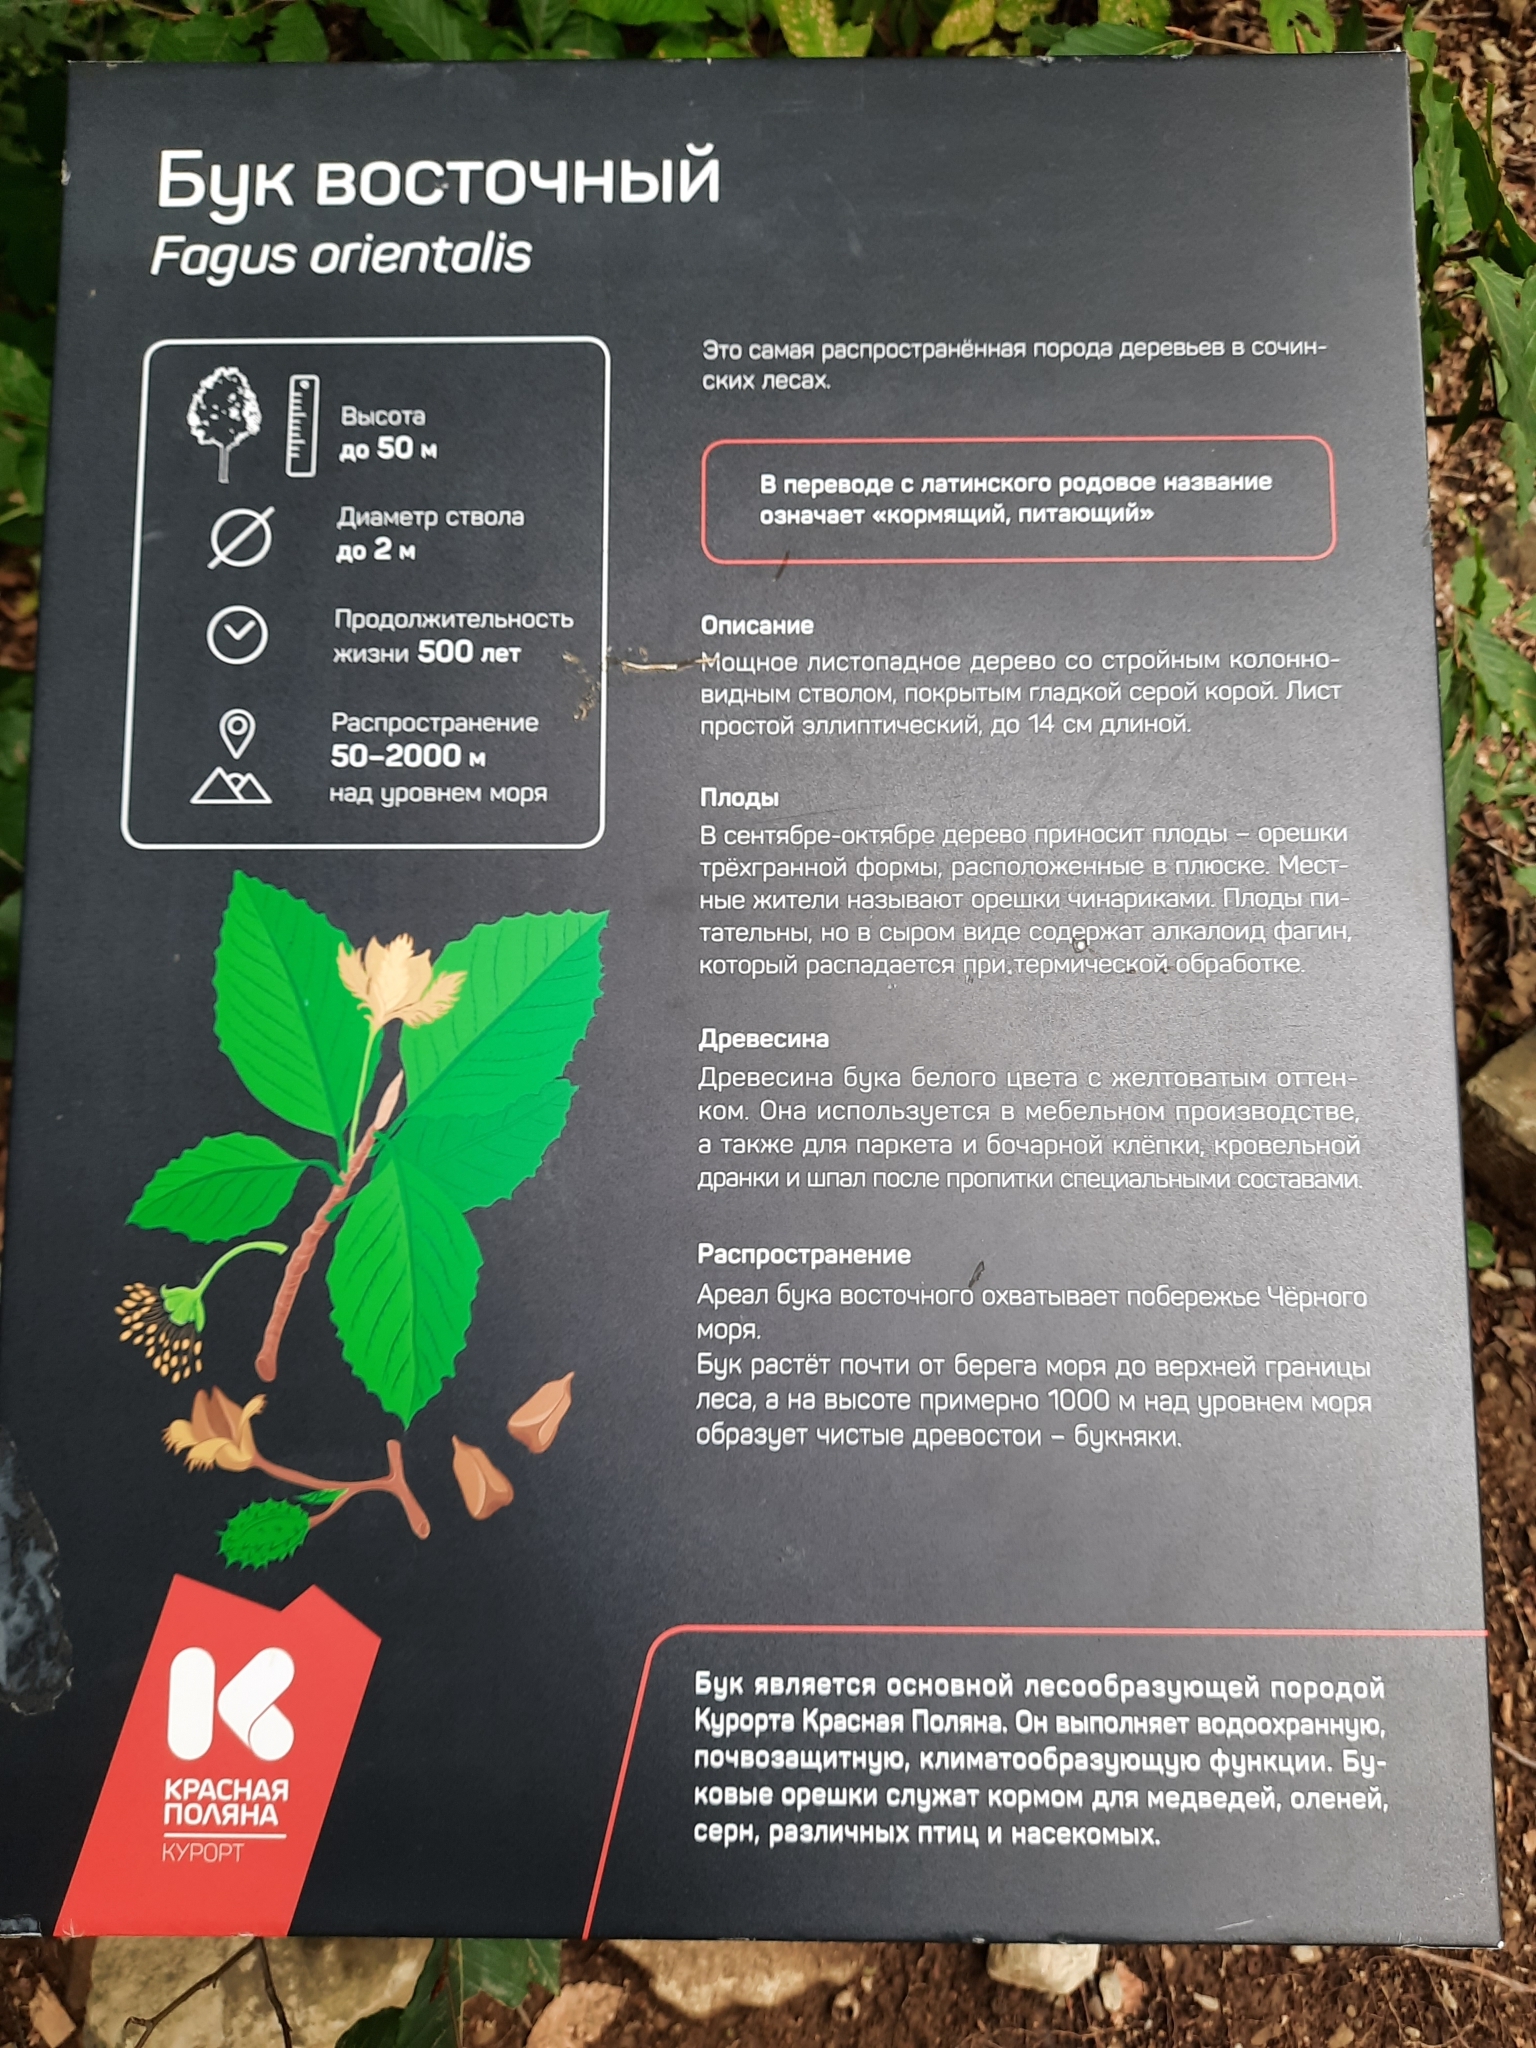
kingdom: Plantae
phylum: Tracheophyta
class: Magnoliopsida
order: Fagales
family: Fagaceae
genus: Fagus
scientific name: Fagus orientalis
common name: Oriental beech
